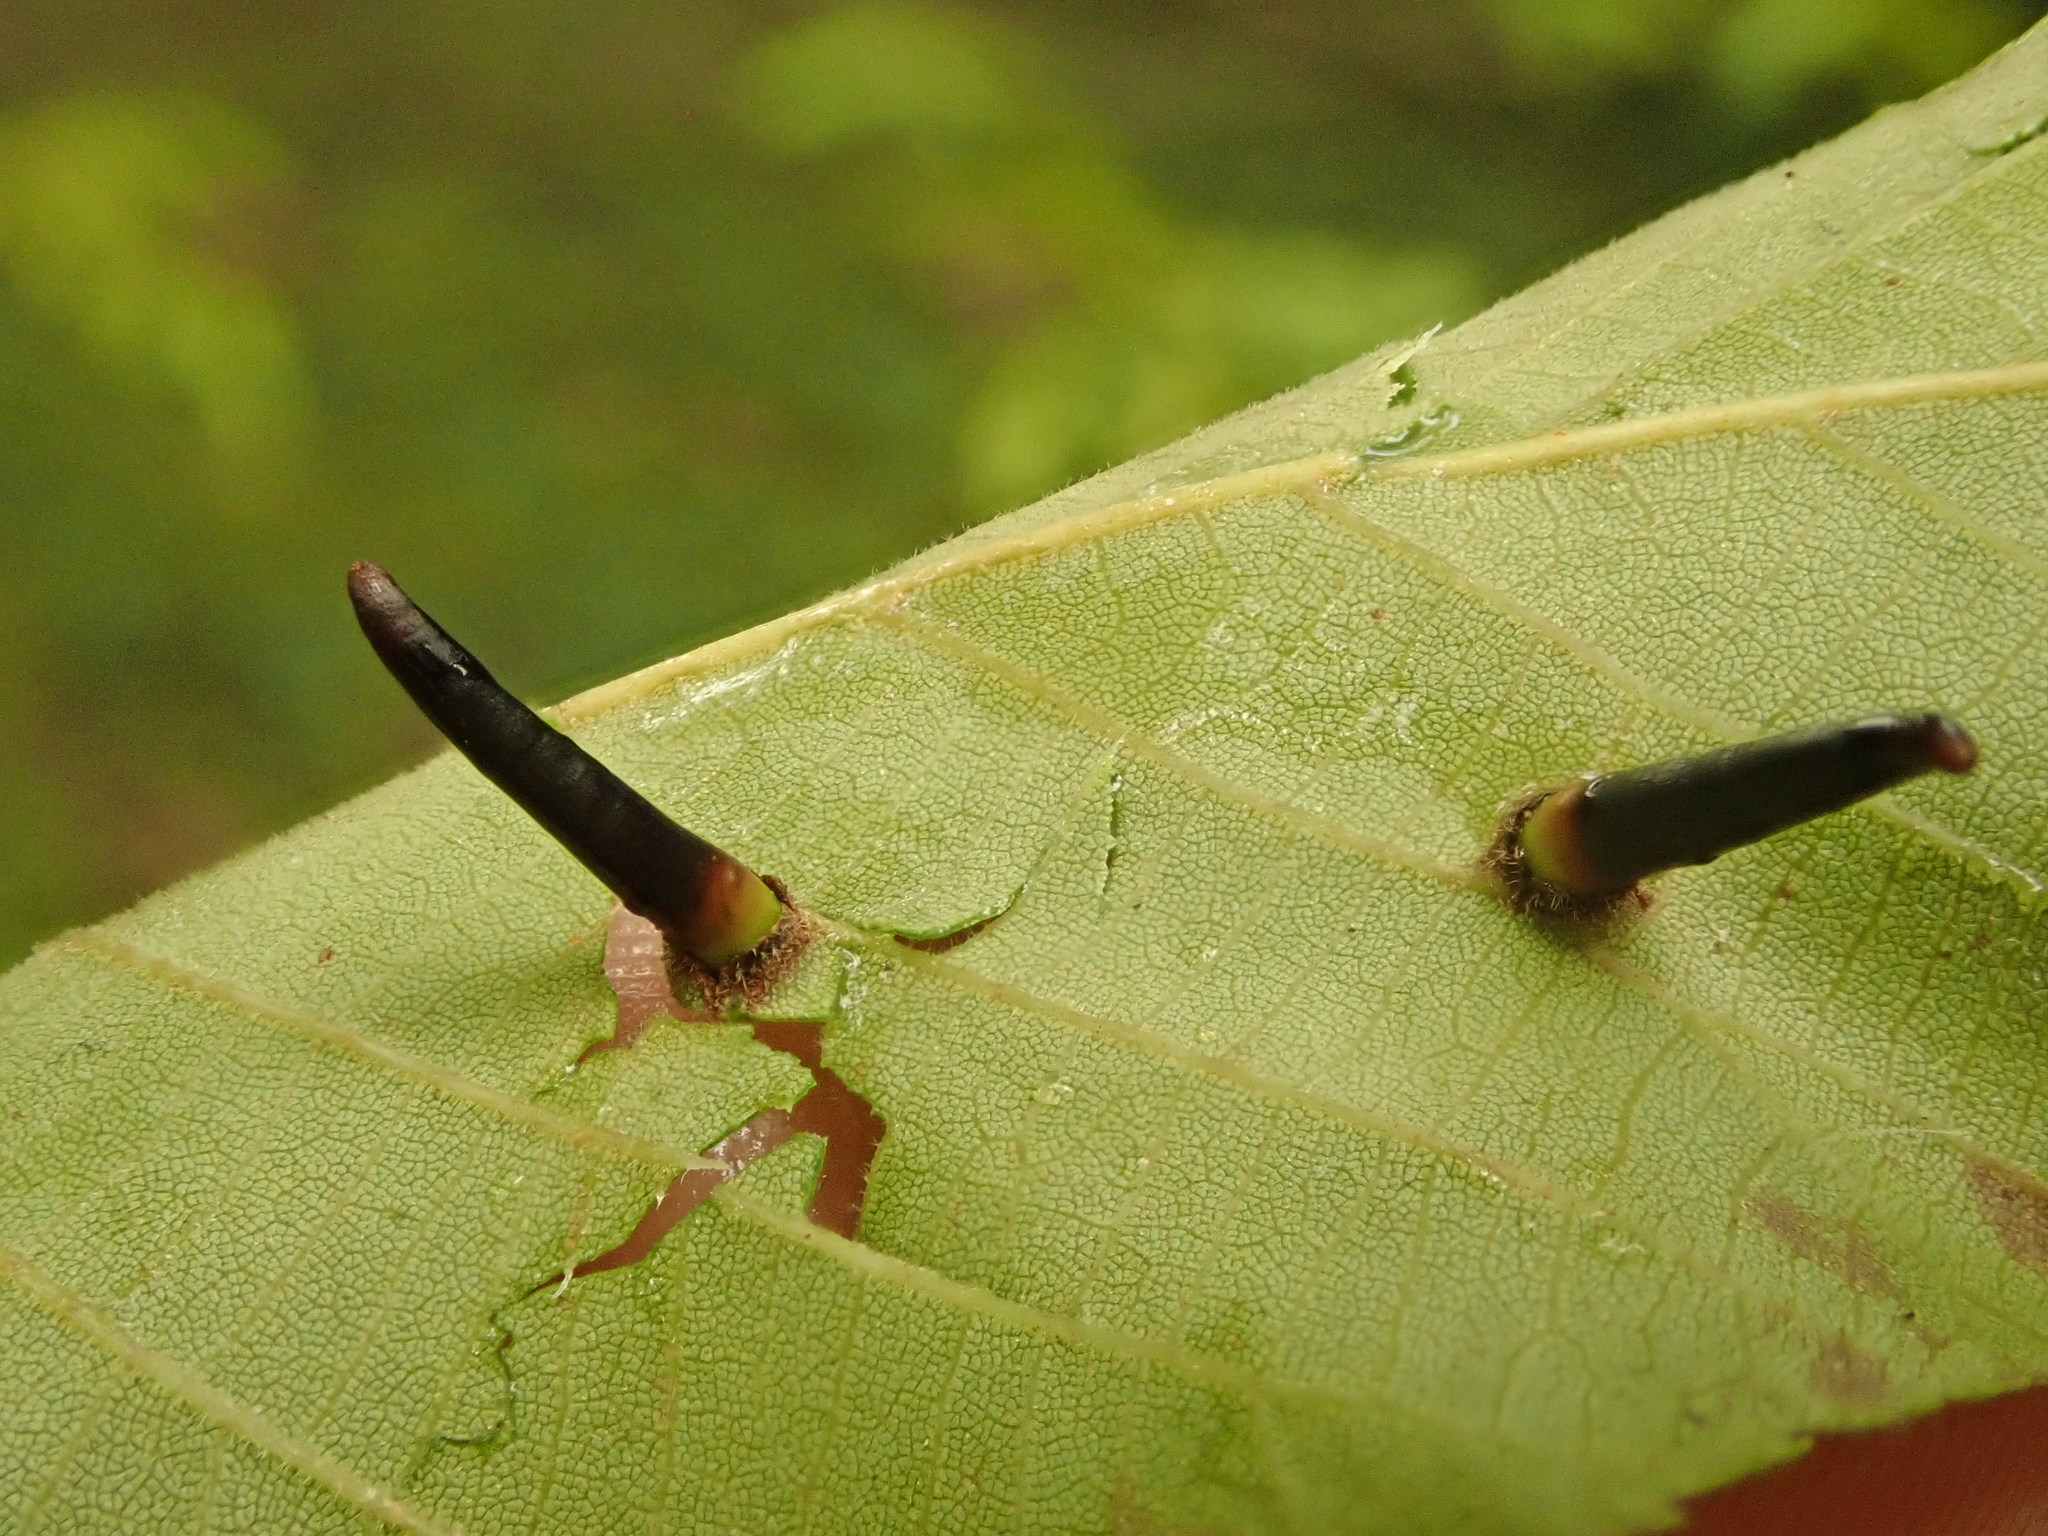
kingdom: Animalia
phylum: Arthropoda
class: Insecta
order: Diptera
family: Cecidomyiidae
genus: Caryomyia
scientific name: Caryomyia subulata
